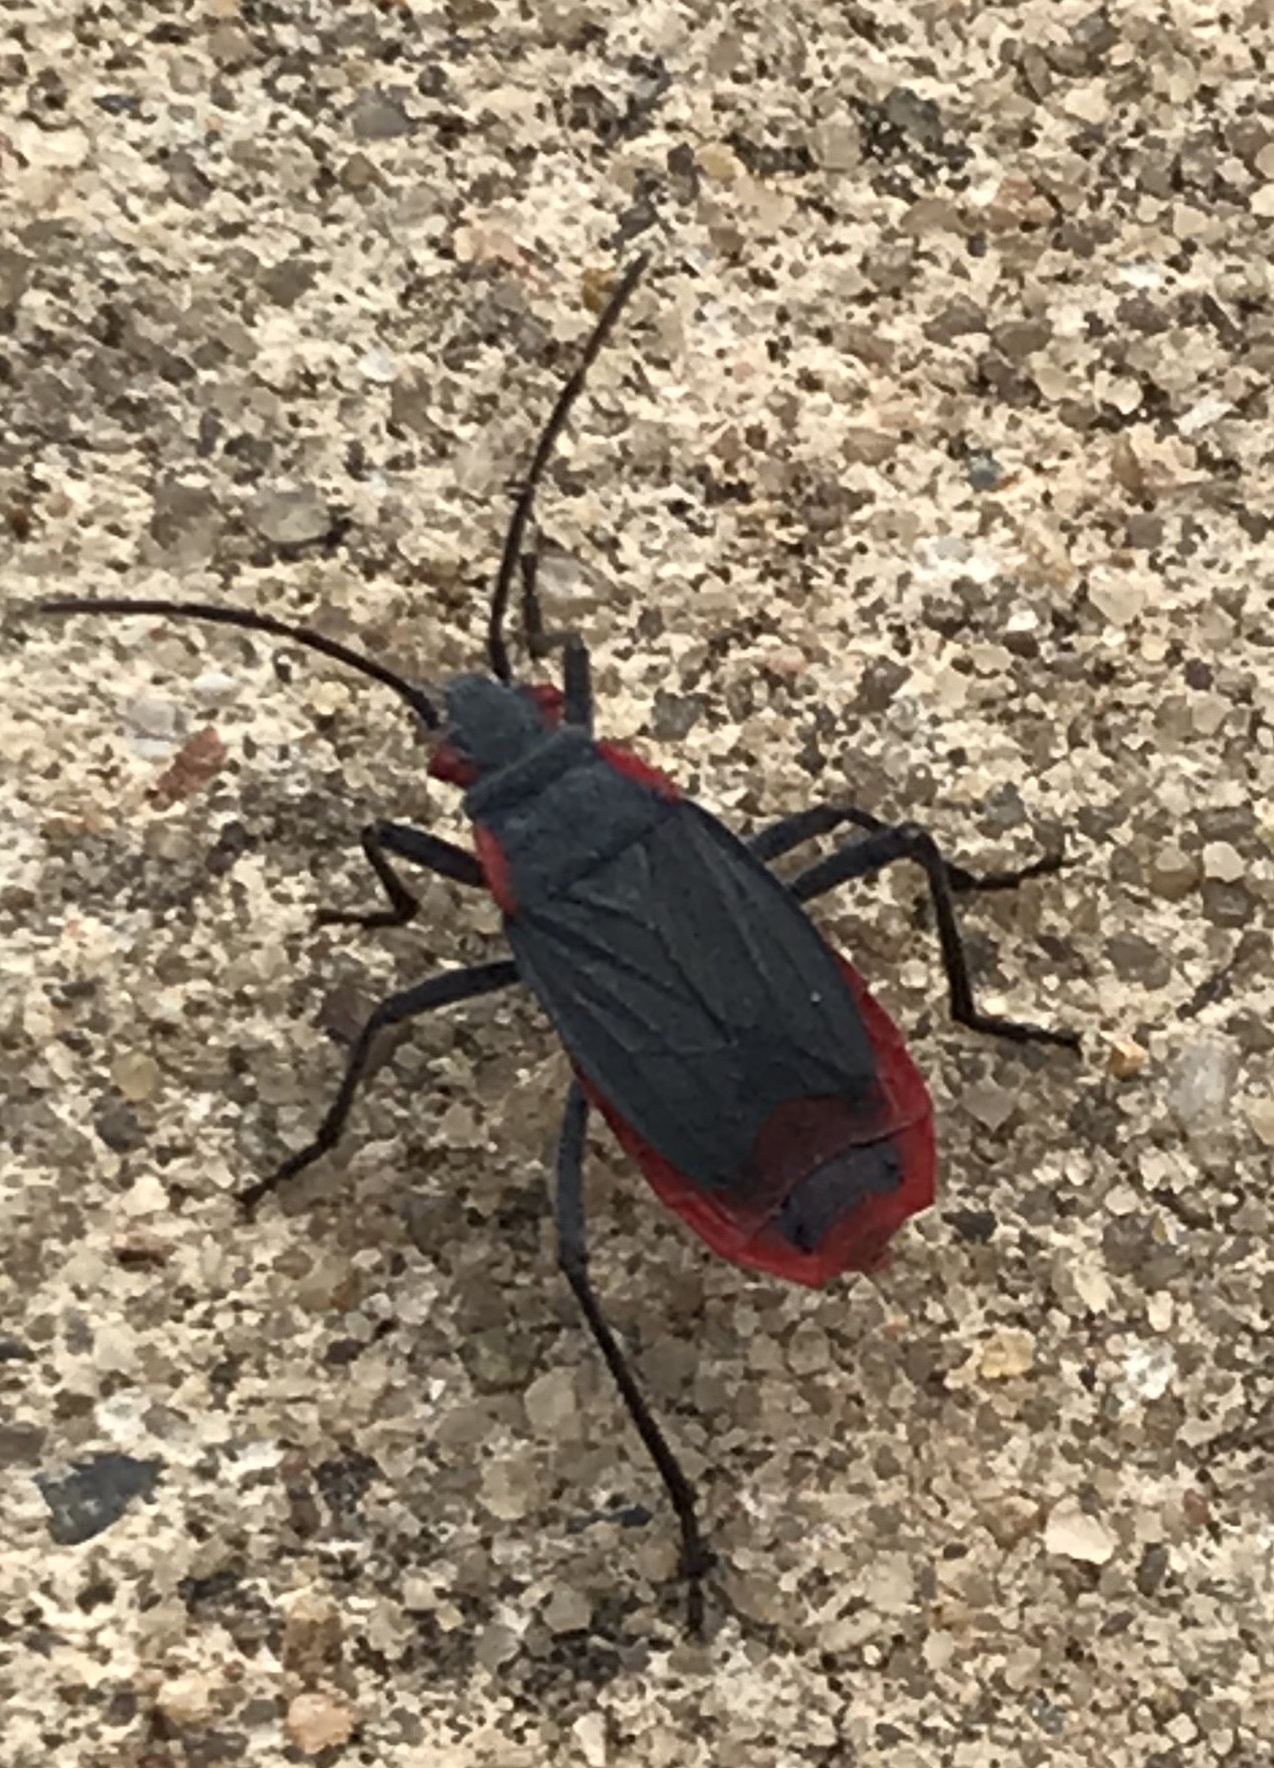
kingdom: Animalia
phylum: Arthropoda
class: Insecta
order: Hemiptera
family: Rhopalidae
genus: Jadera
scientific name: Jadera haematoloma
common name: Red-shouldered bug
